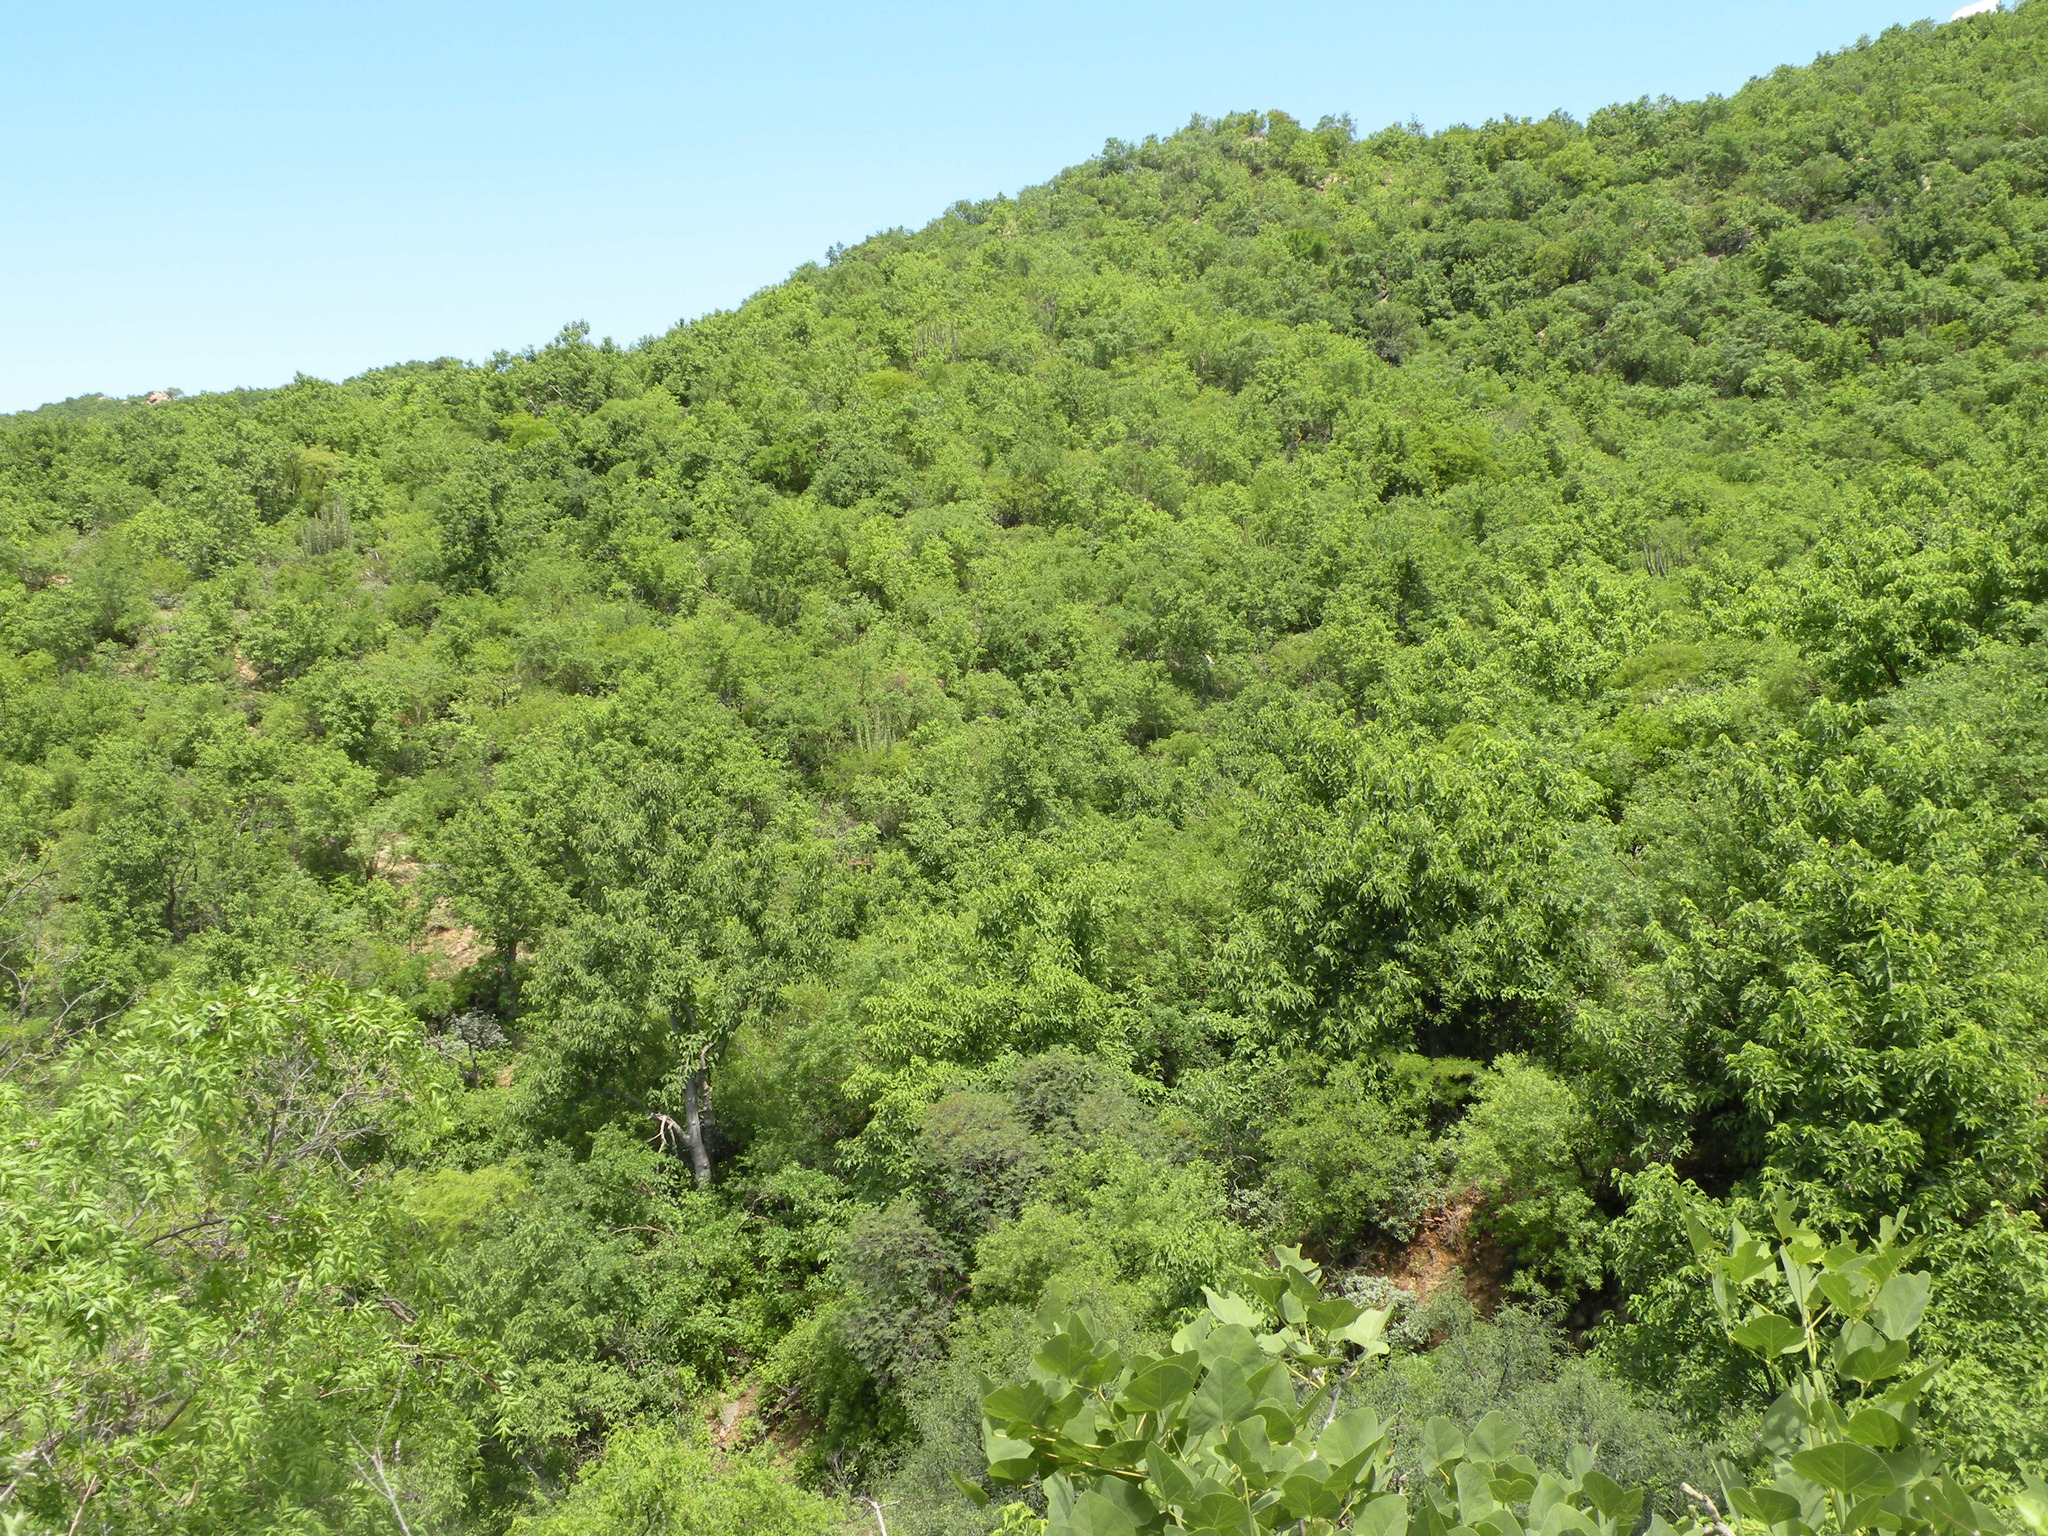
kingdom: Plantae
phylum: Tracheophyta
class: Magnoliopsida
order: Solanales
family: Convolvulaceae
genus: Ipomoea
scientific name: Ipomoea arborescens
